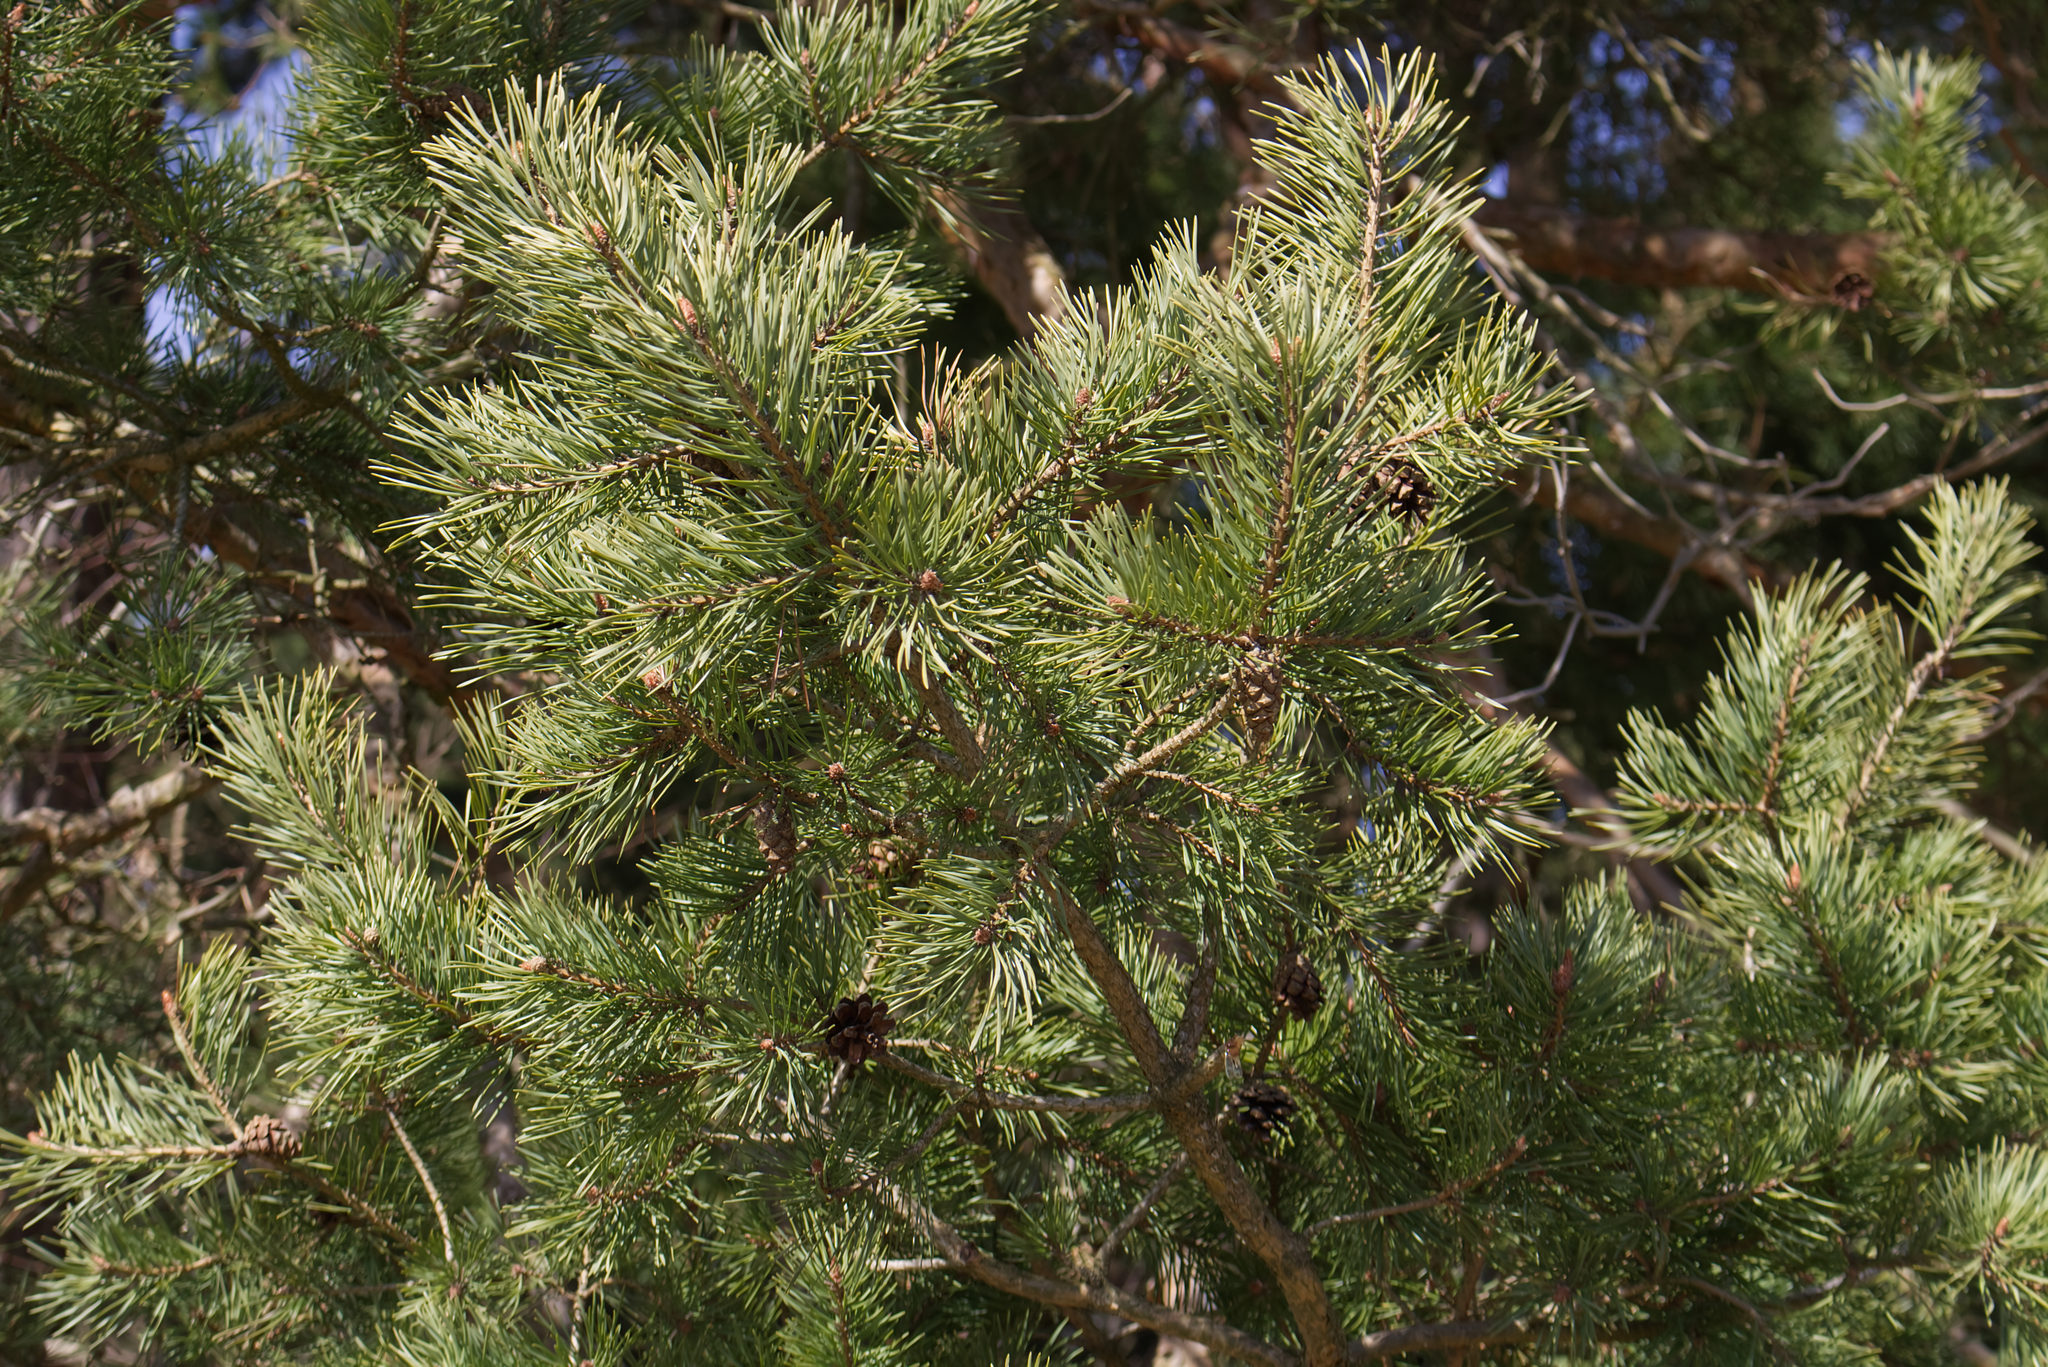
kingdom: Plantae
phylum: Tracheophyta
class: Pinopsida
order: Pinales
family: Pinaceae
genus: Pinus
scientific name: Pinus sylvestris
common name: Scots pine
